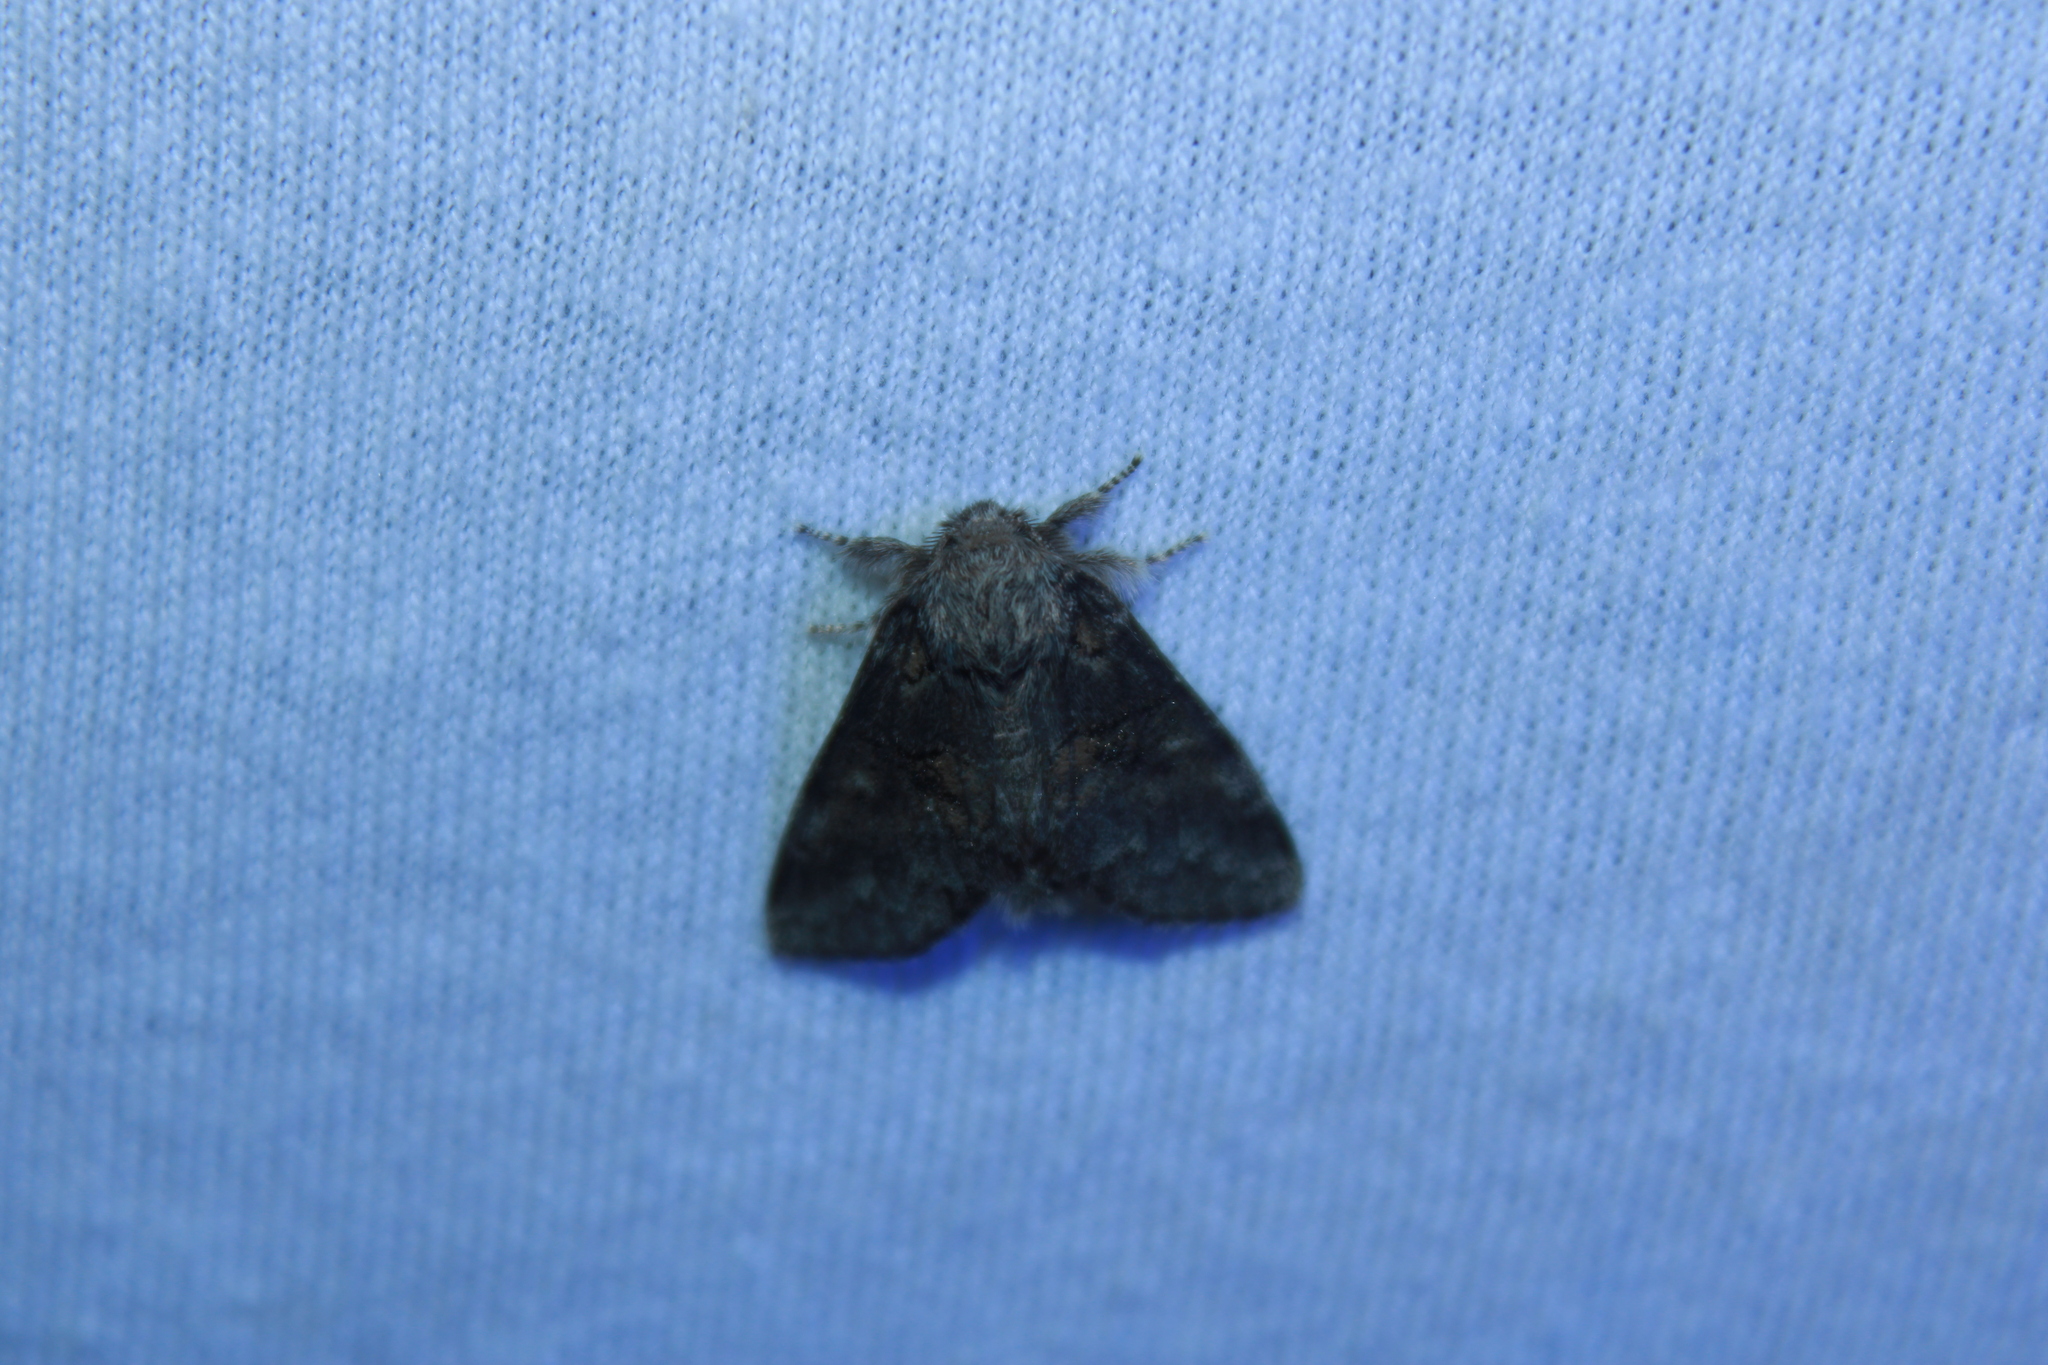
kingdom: Animalia
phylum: Arthropoda
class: Insecta
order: Lepidoptera
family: Notodontidae
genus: Gluphisia
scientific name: Gluphisia septentrionis
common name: Common gluphisia
